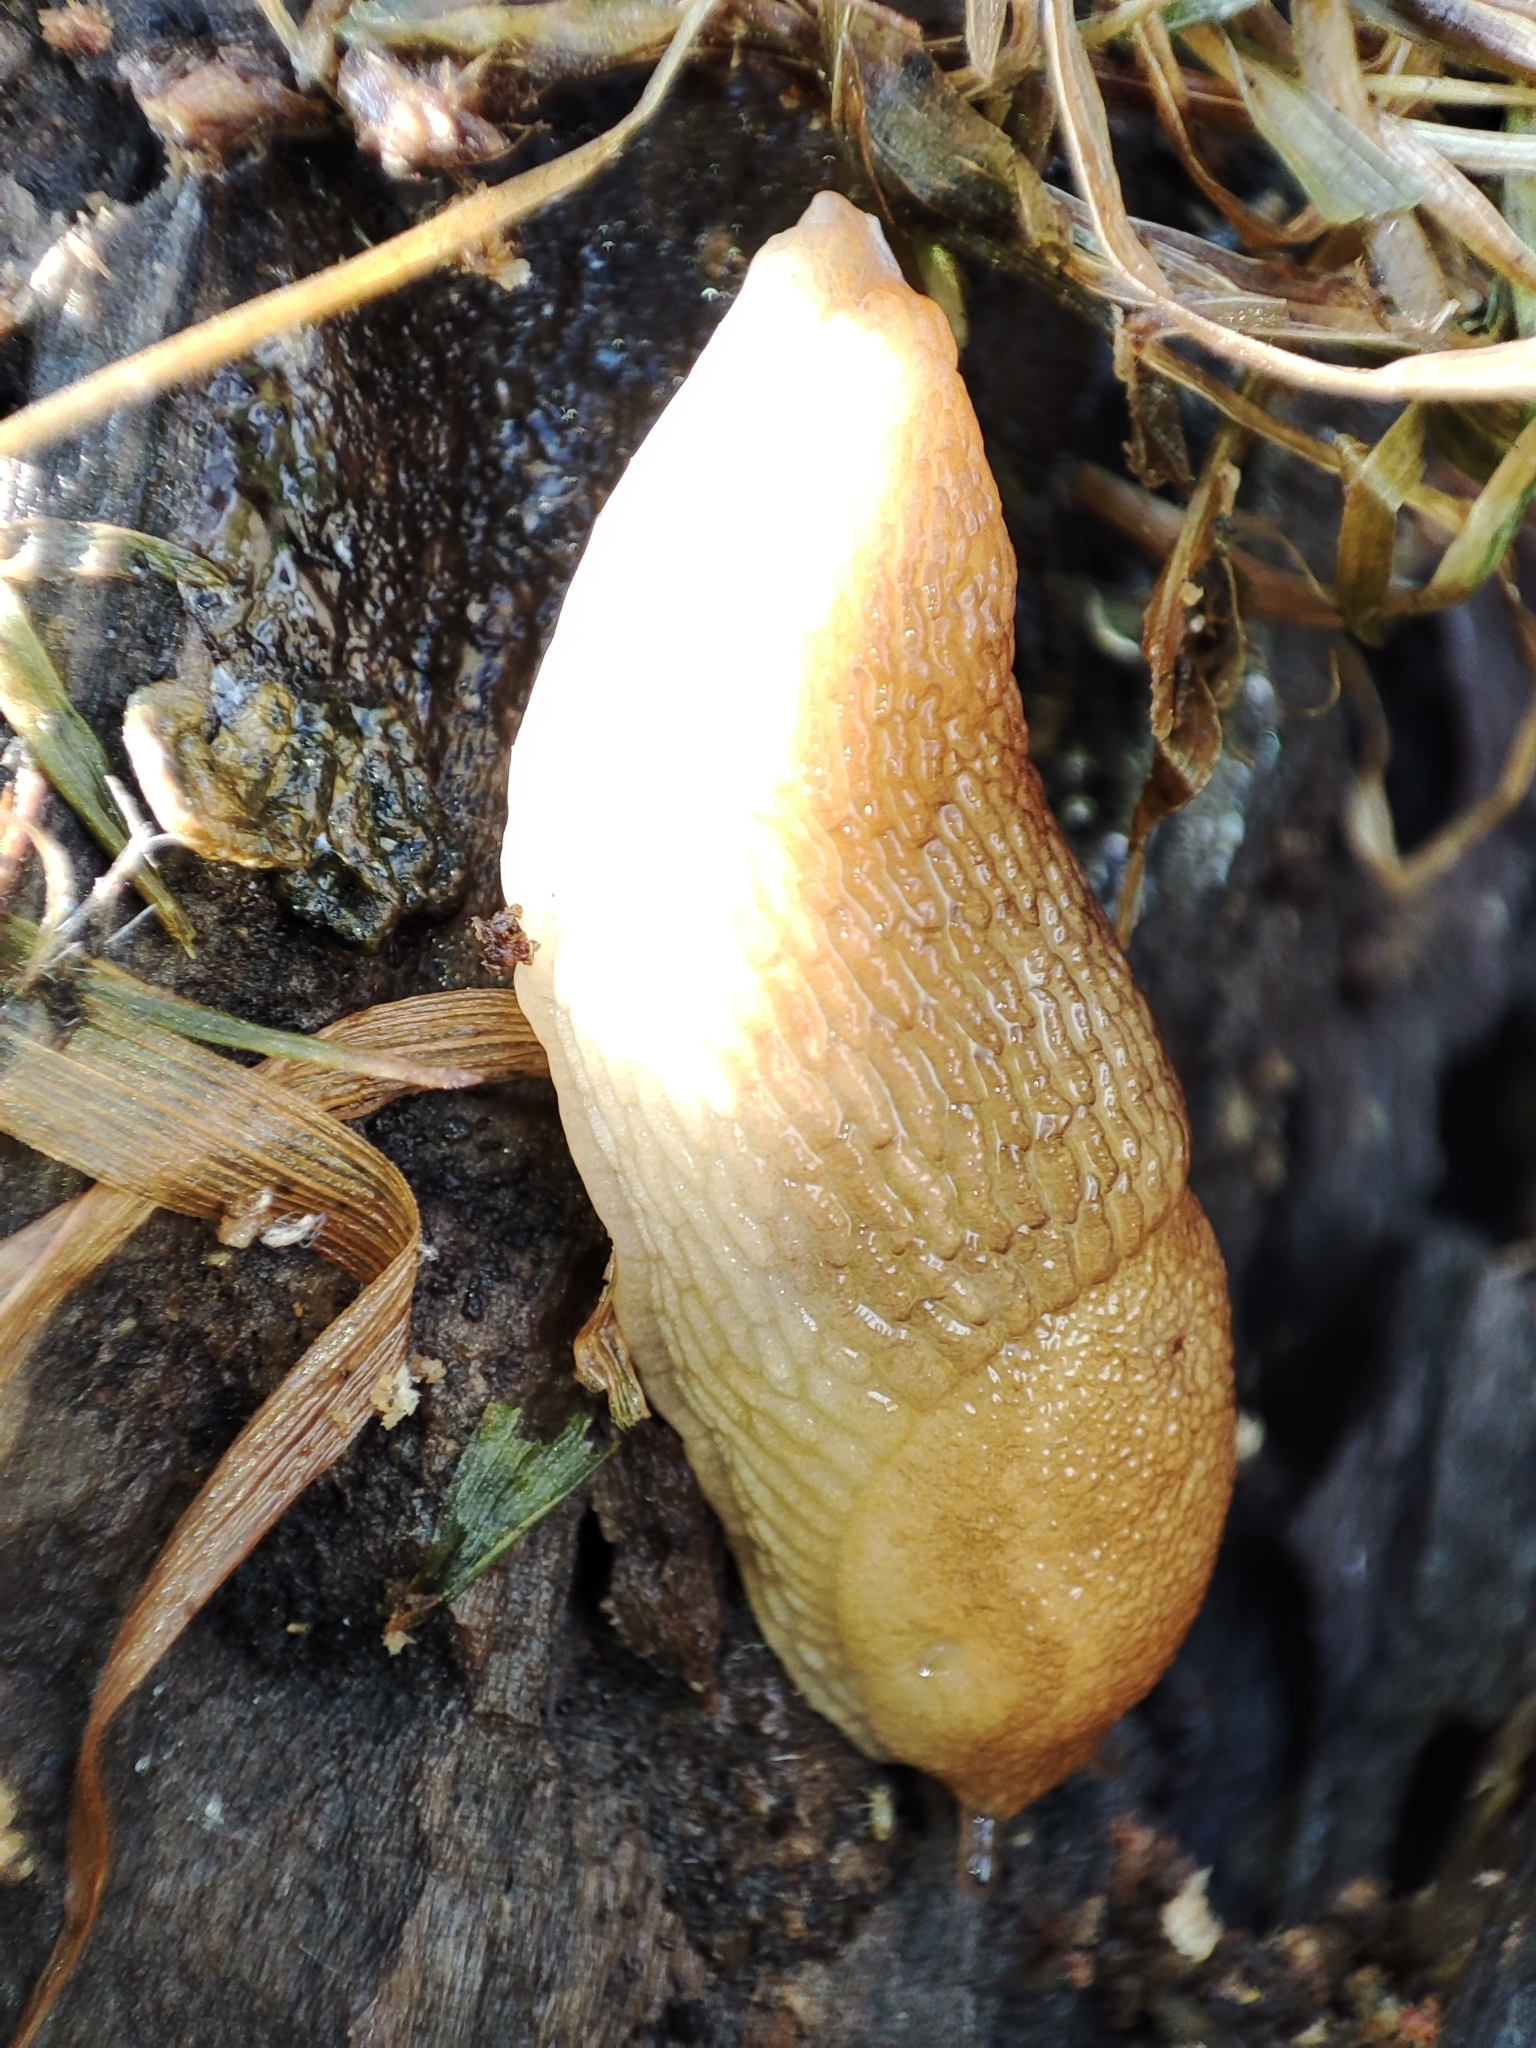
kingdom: Animalia
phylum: Mollusca
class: Gastropoda
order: Stylommatophora
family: Arionidae
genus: Arion
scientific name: Arion fuscus
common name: Northern dusky slug
